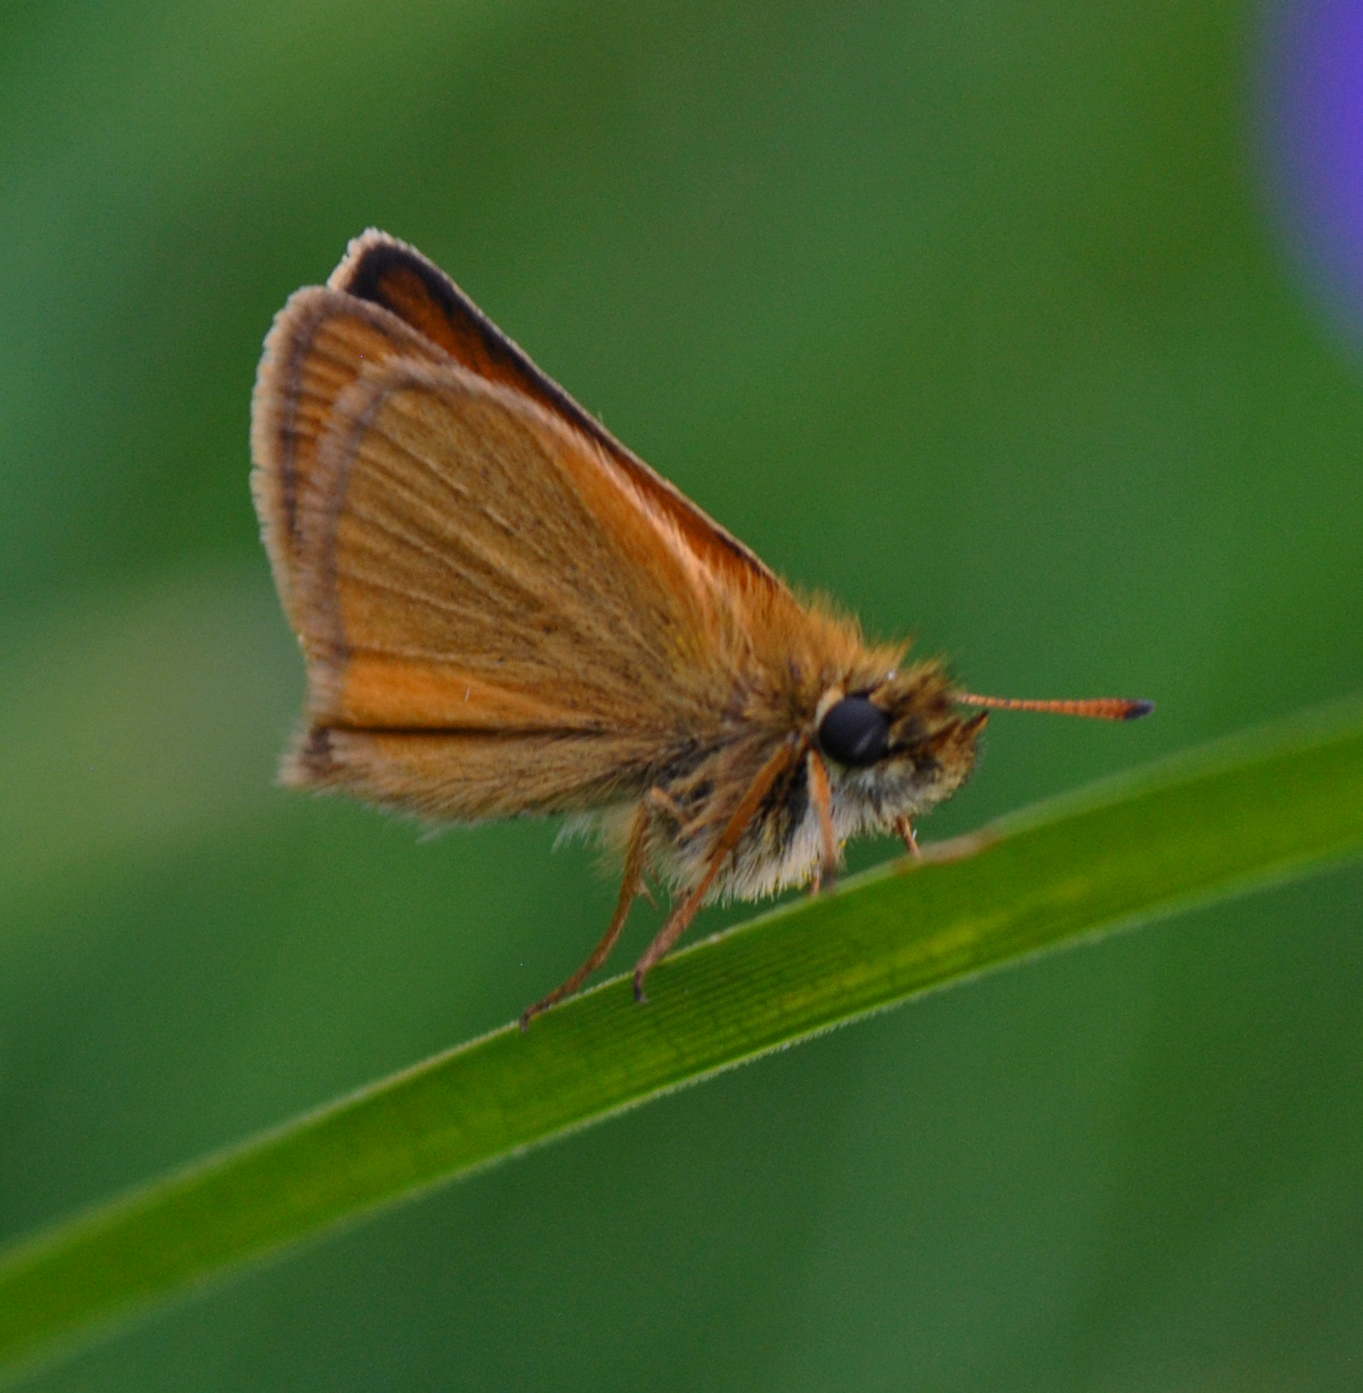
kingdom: Animalia
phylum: Arthropoda
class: Insecta
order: Lepidoptera
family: Hesperiidae
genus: Thymelicus
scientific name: Thymelicus lineola
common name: Essex skipper
